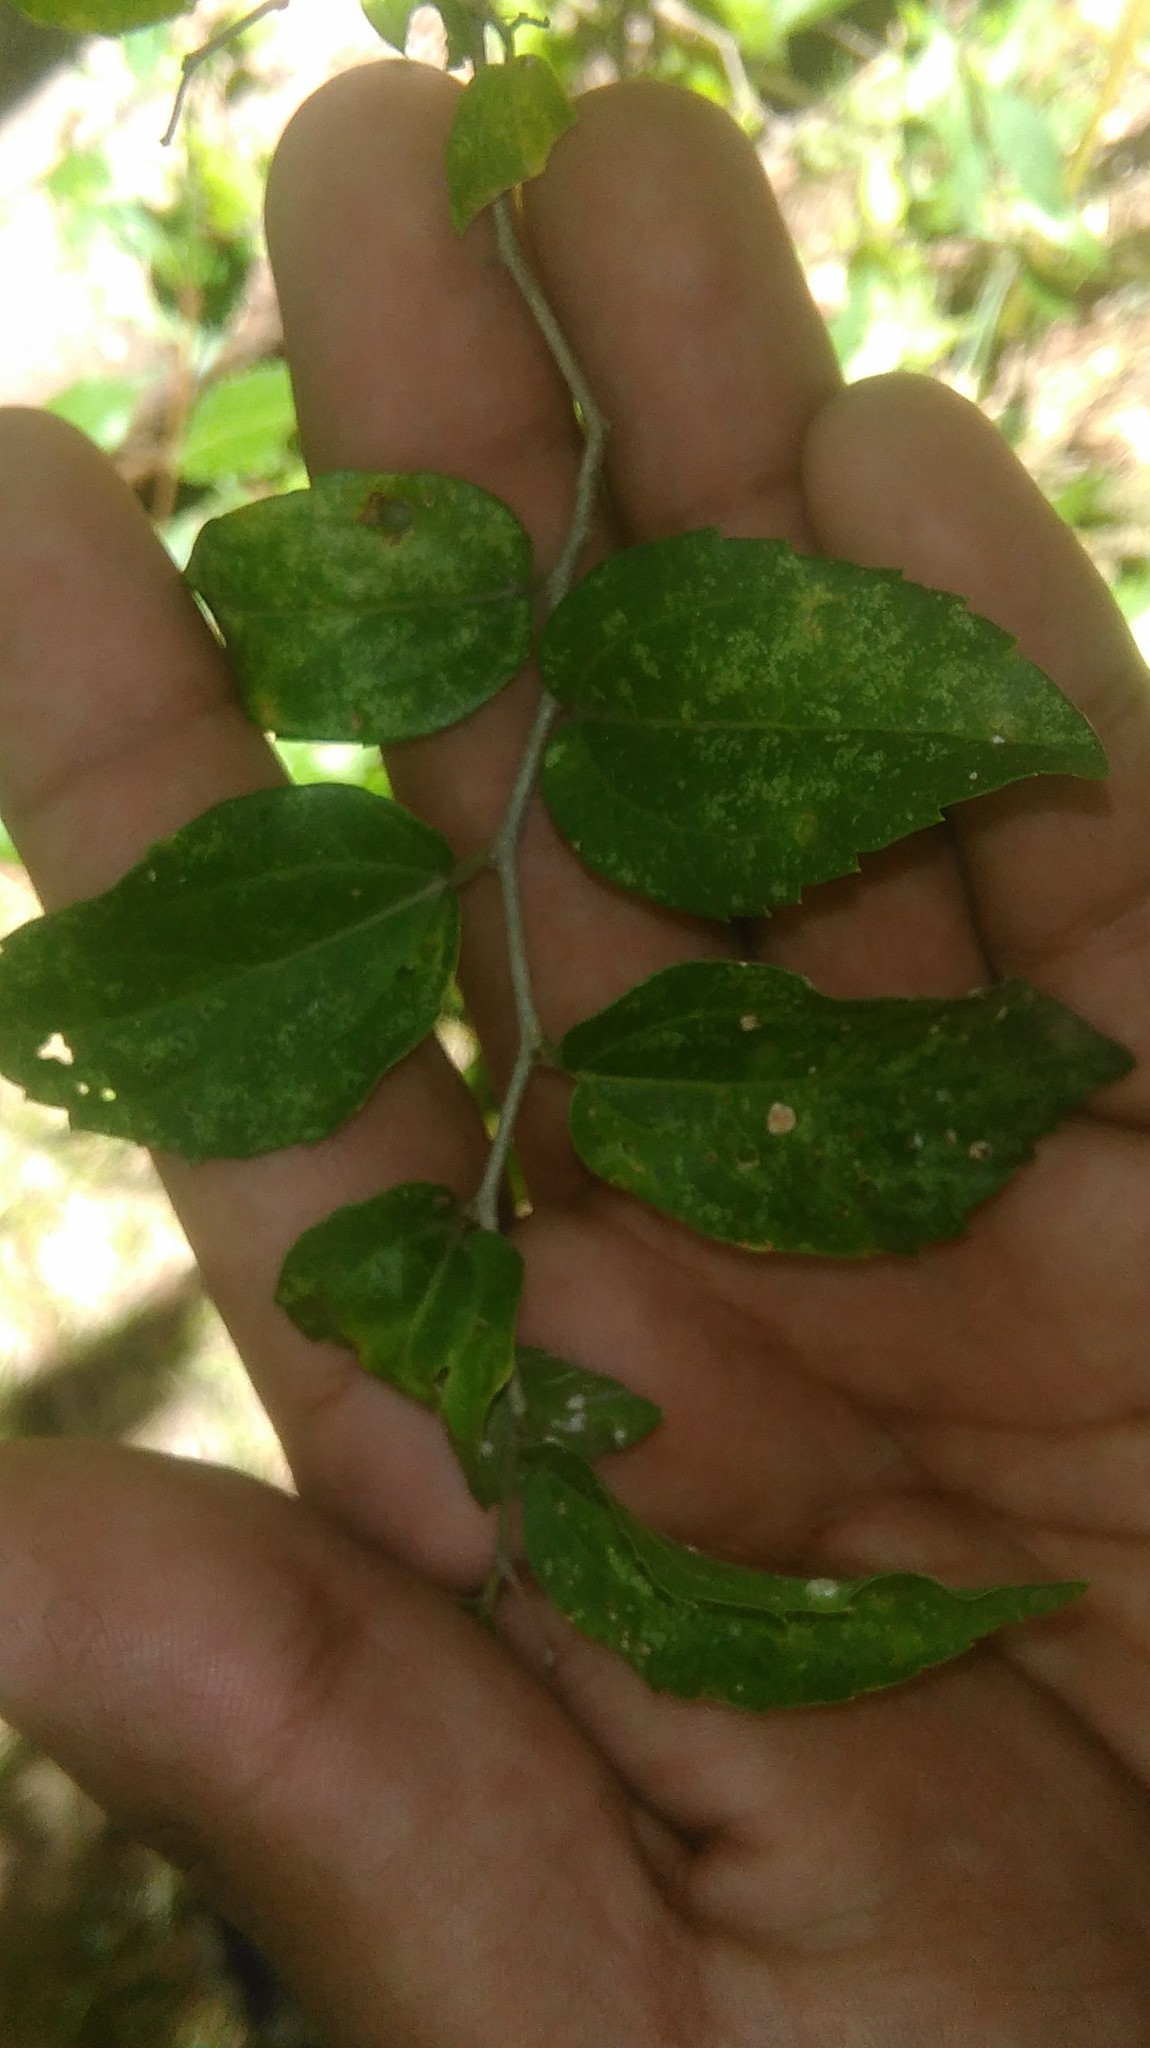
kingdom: Plantae
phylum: Tracheophyta
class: Magnoliopsida
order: Rosales
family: Cannabaceae
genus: Celtis
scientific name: Celtis tala
